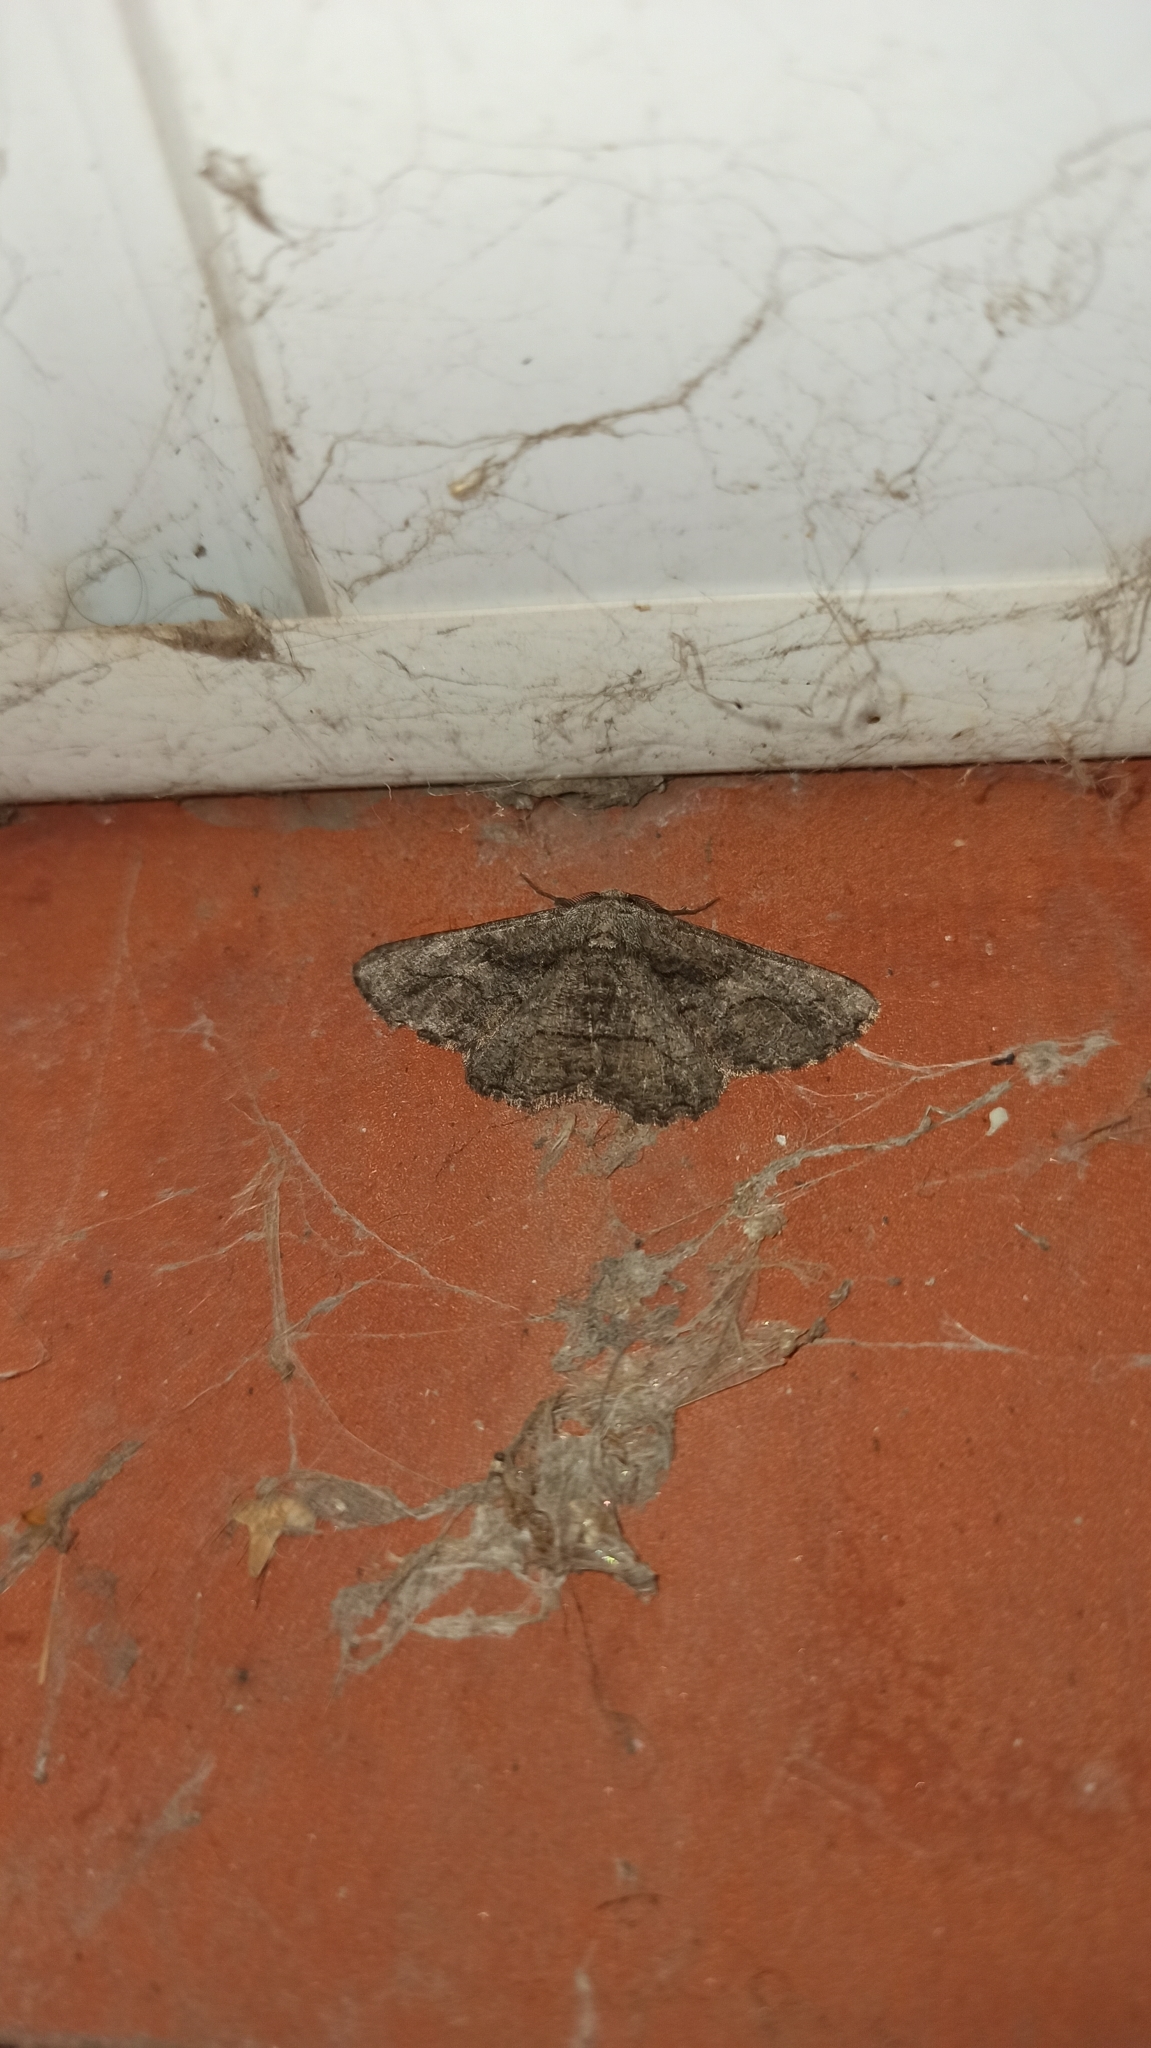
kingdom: Animalia
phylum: Arthropoda
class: Insecta
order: Lepidoptera
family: Geometridae
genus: Synopsia
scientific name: Synopsia sociaria
